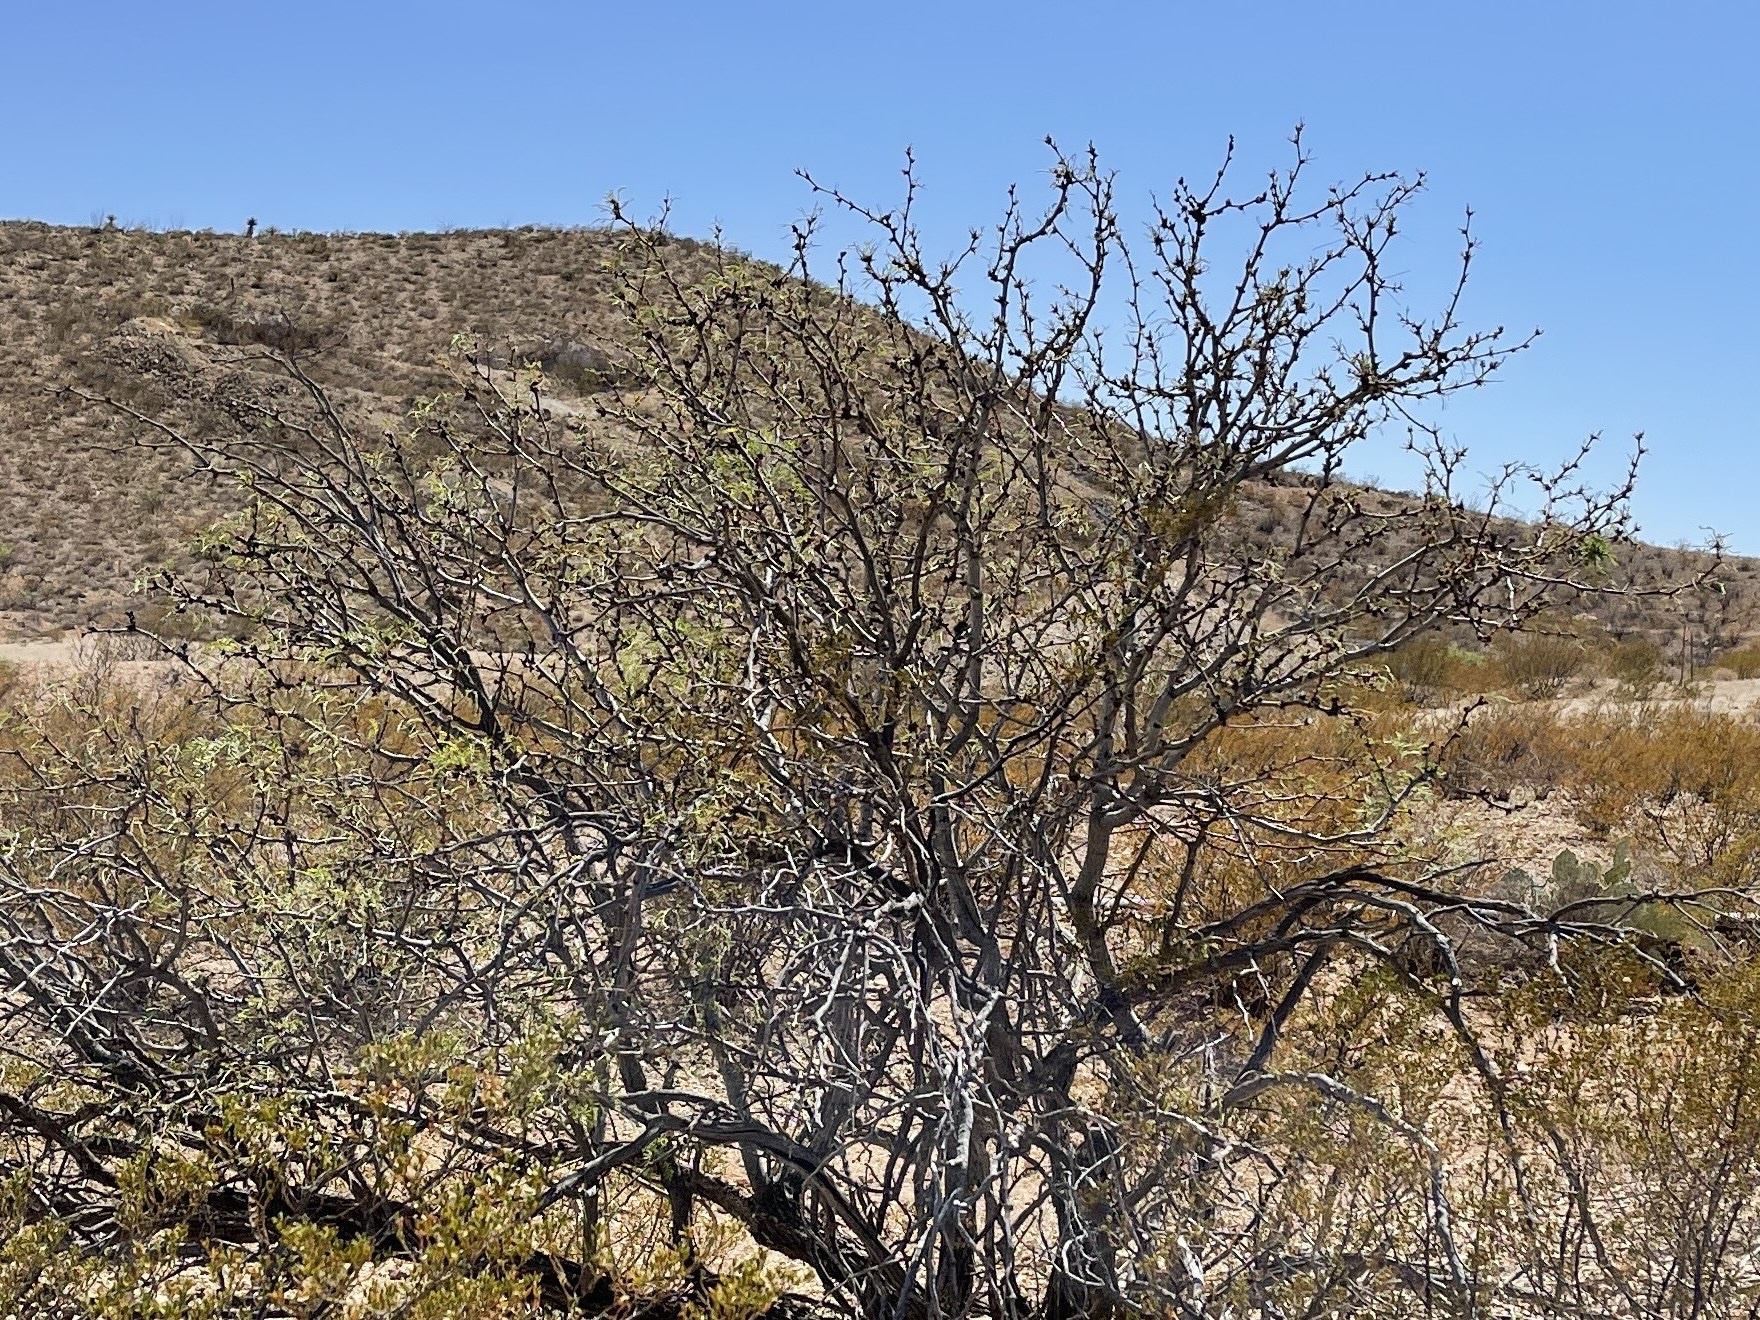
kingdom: Plantae
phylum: Tracheophyta
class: Magnoliopsida
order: Fabales
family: Fabaceae
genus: Prosopis
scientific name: Prosopis glandulosa
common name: Honey mesquite
